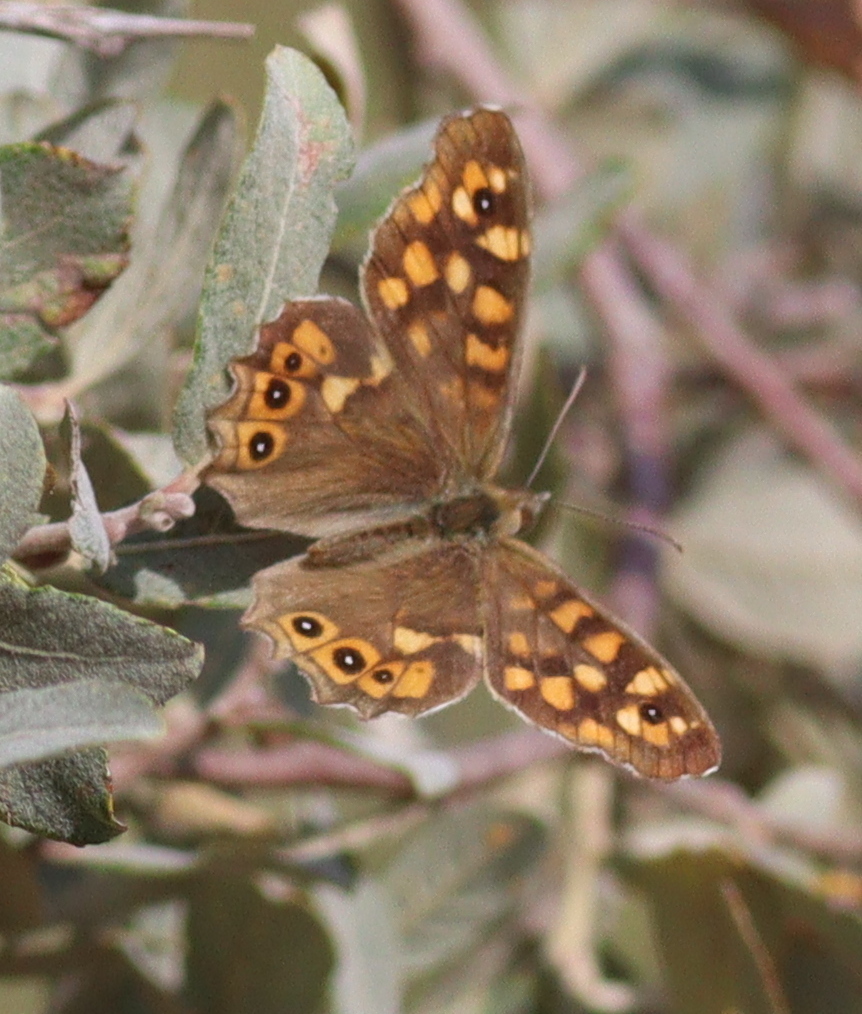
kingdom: Animalia
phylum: Arthropoda
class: Insecta
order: Lepidoptera
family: Nymphalidae
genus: Pararge
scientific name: Pararge aegeria
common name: Speckled wood
